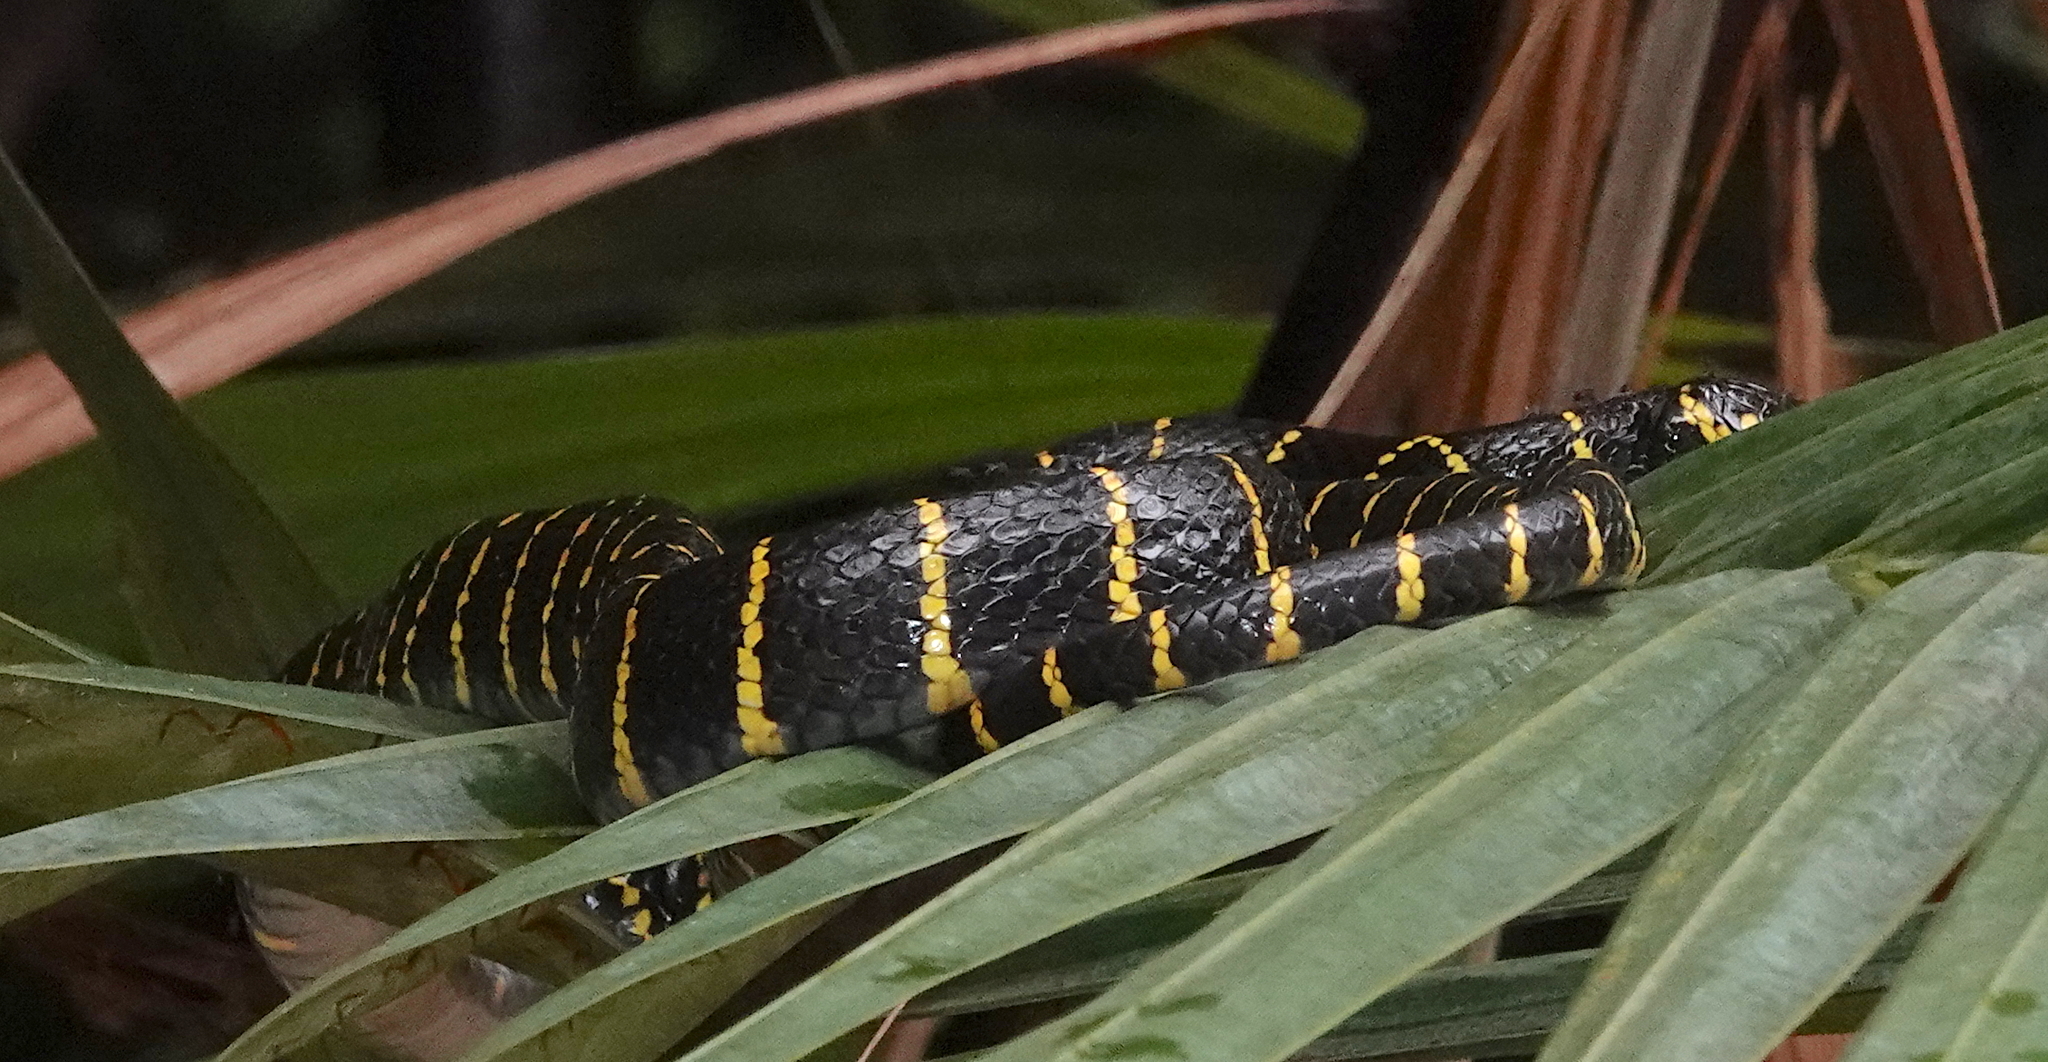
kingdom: Animalia
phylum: Chordata
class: Squamata
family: Colubridae
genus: Boiga
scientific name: Boiga dendrophila
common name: Gold-ringed cat snake
